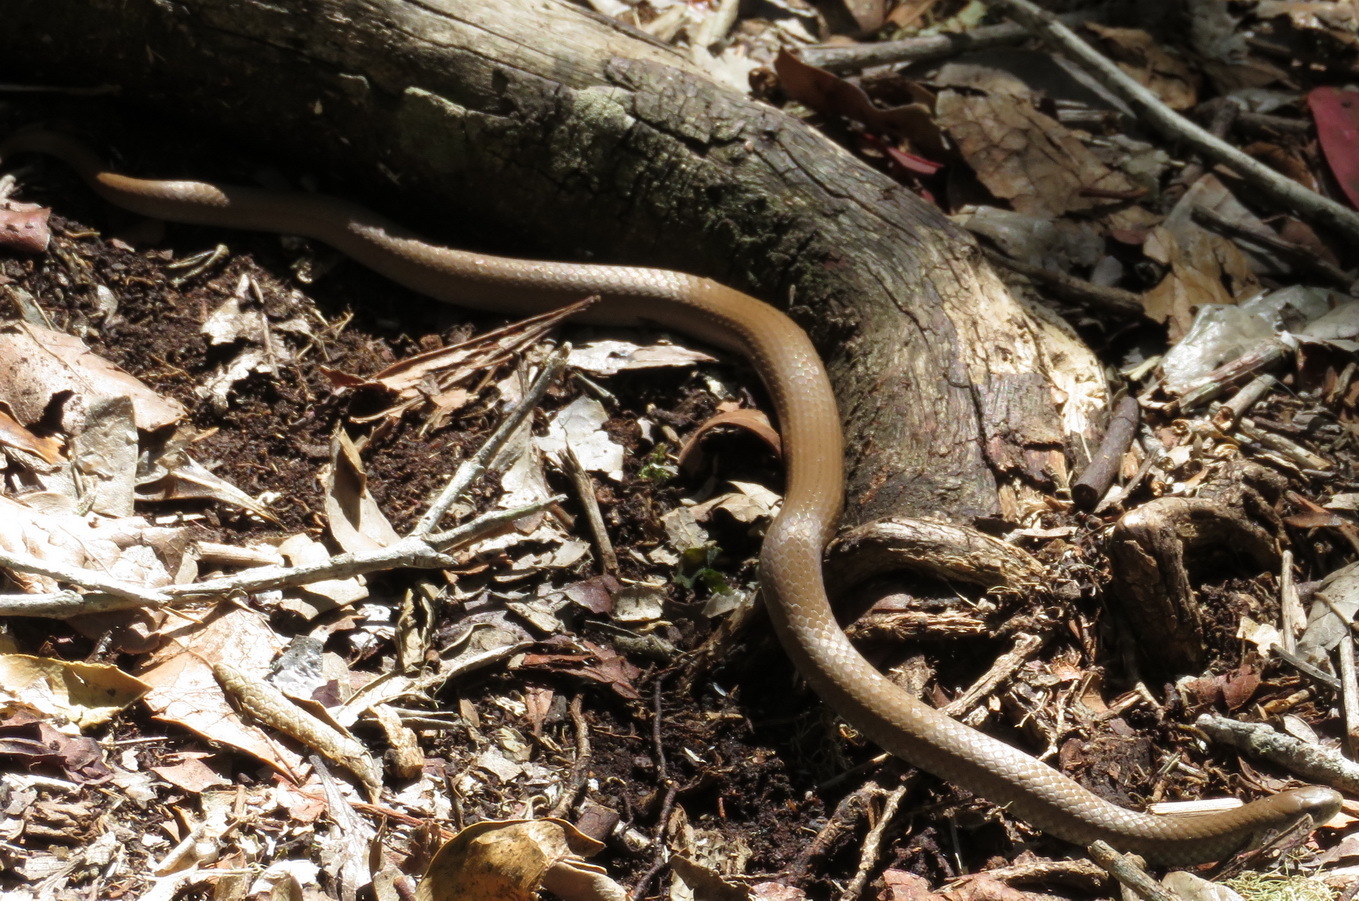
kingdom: Animalia
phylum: Chordata
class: Squamata
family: Pseudoxyrhophiidae
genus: Duberria
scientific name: Duberria lutrix
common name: Common slug eater
